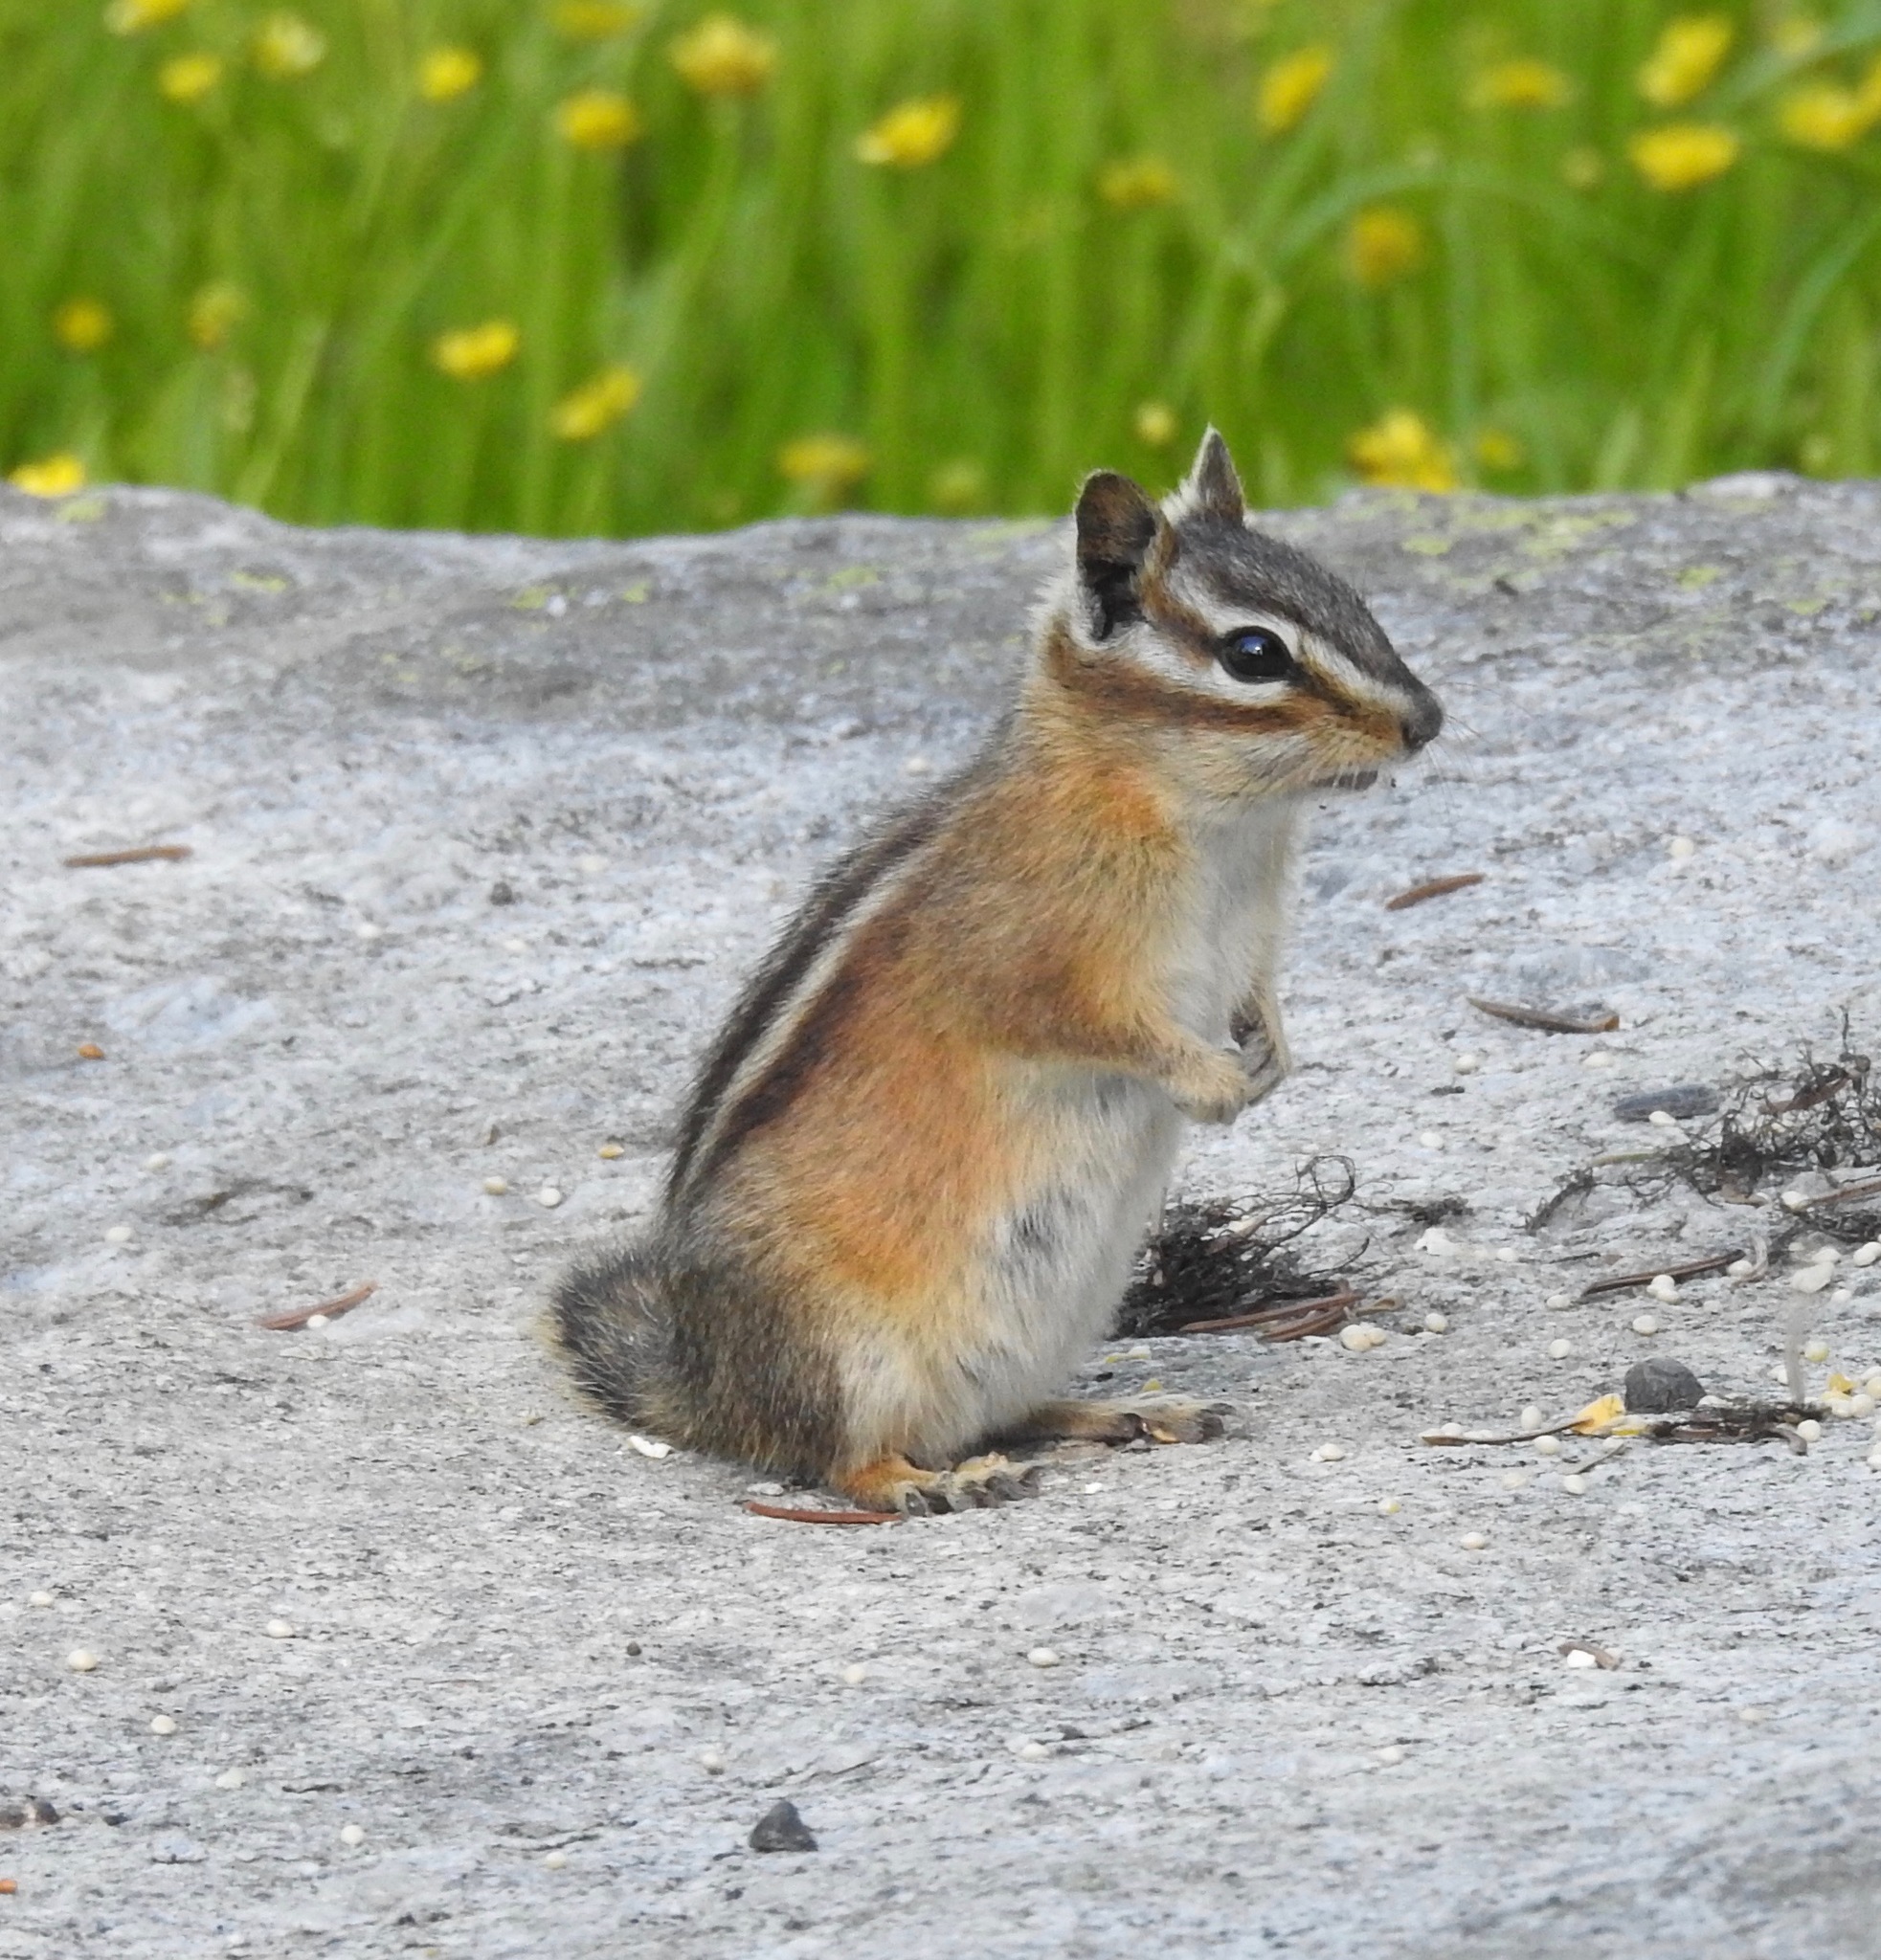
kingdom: Animalia
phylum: Chordata
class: Mammalia
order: Rodentia
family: Sciuridae
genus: Tamias
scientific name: Tamias minimus
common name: Least chipmunk
